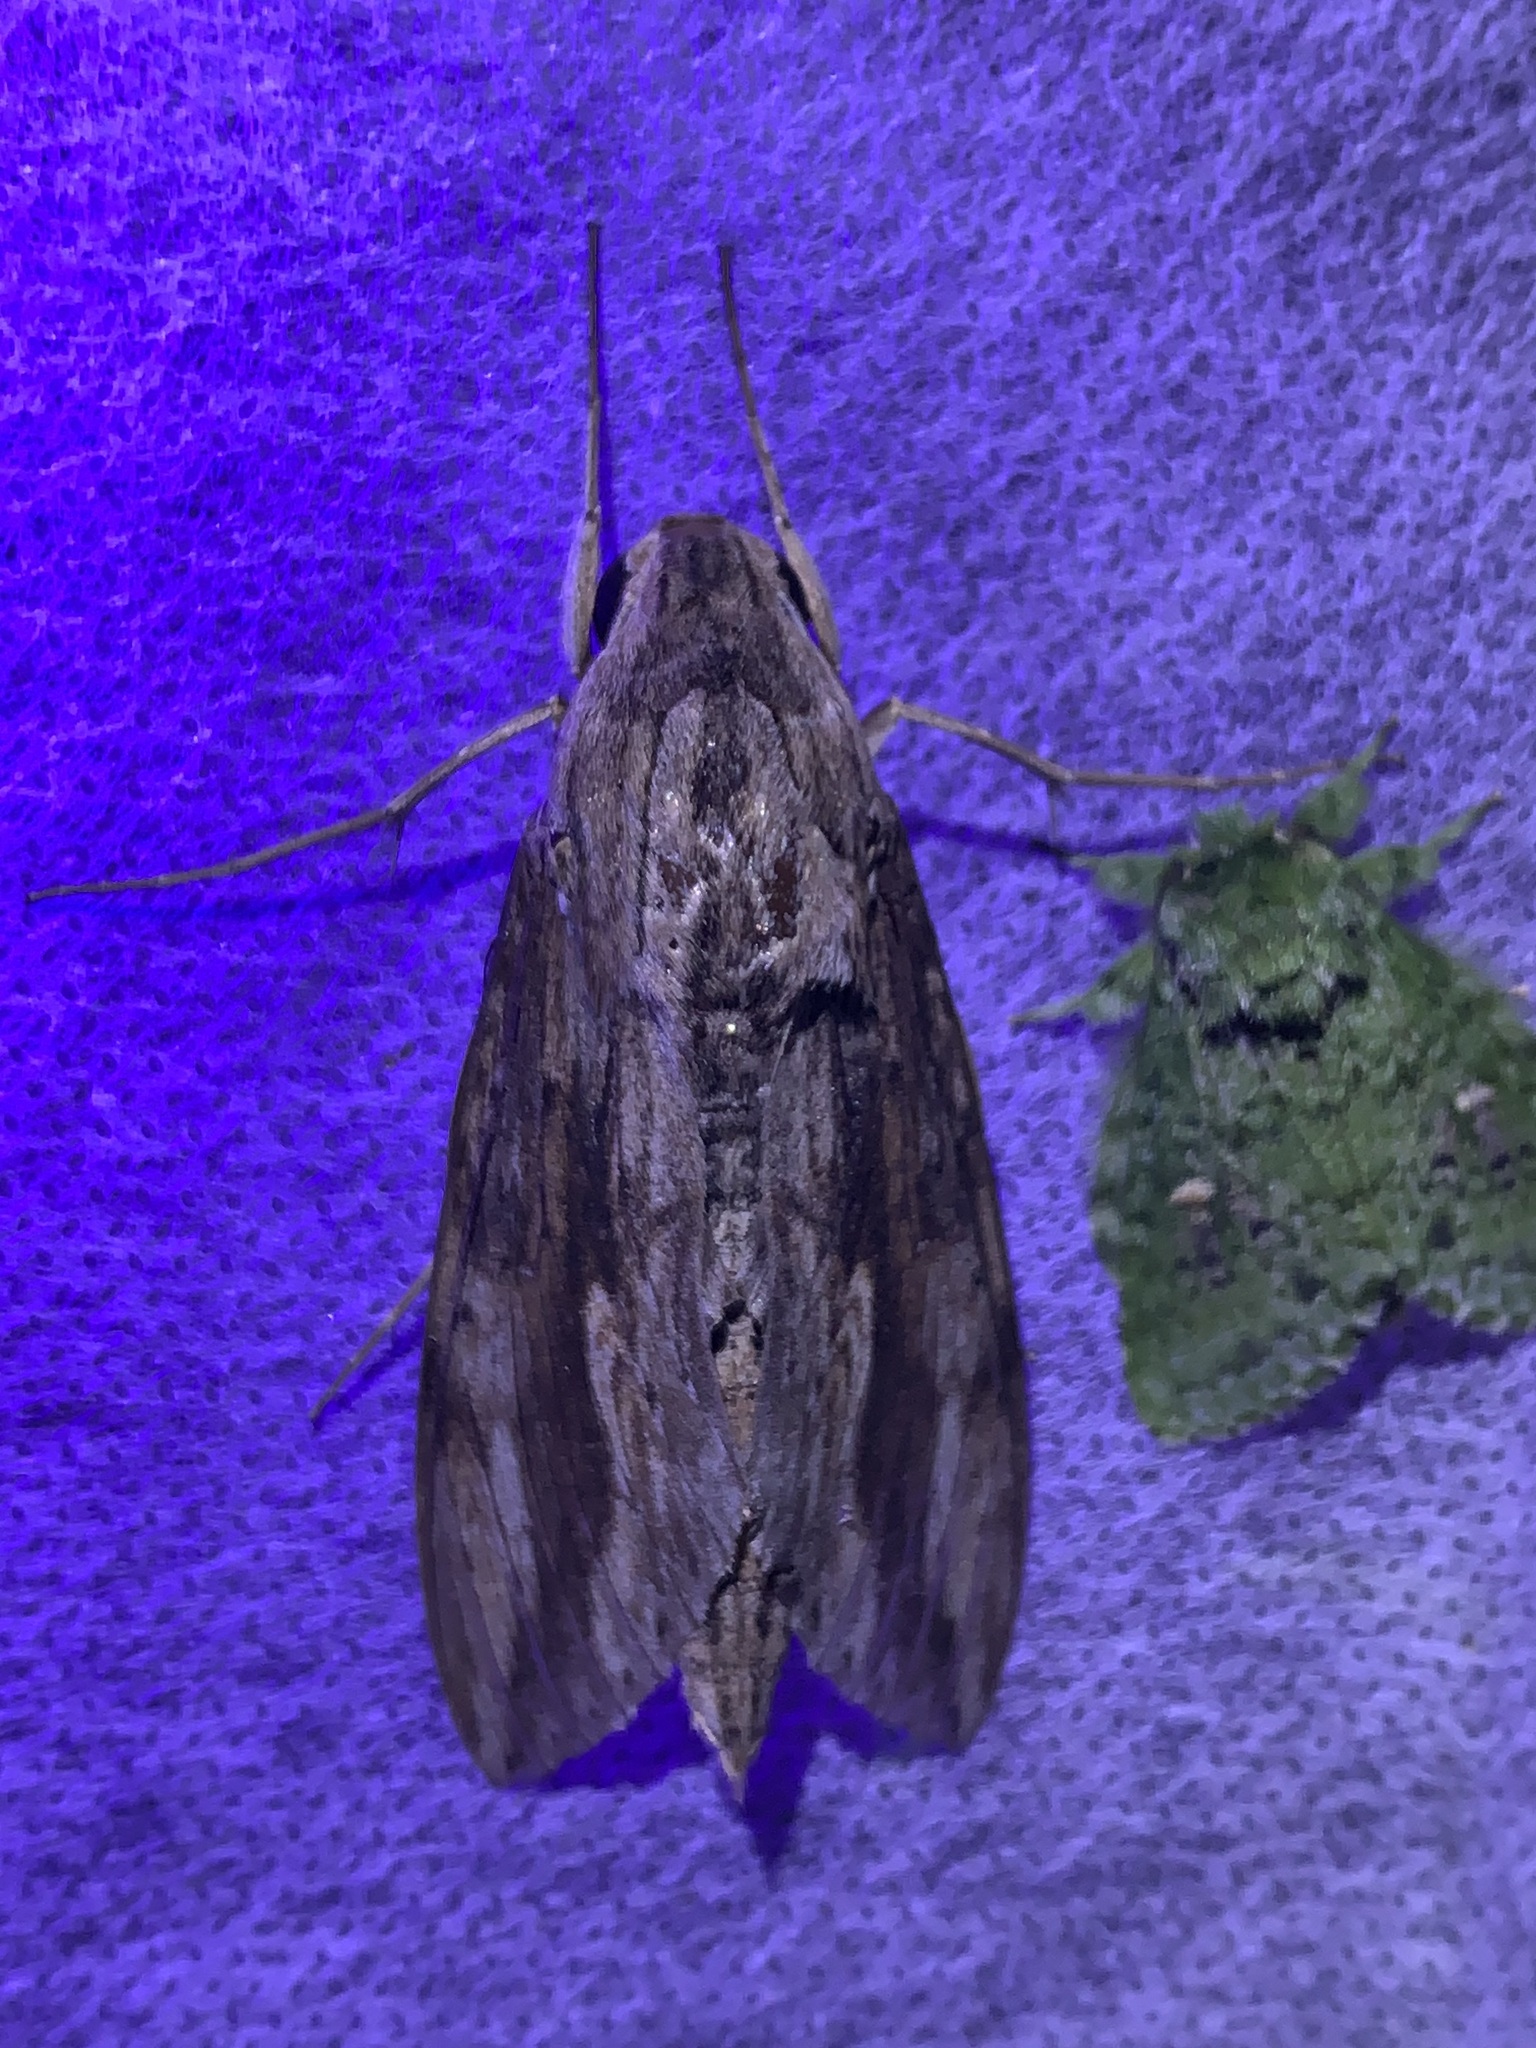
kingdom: Animalia
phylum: Arthropoda
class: Insecta
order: Lepidoptera
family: Sphingidae
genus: Erinnyis
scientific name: Erinnyis ello
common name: Ello sphinx
